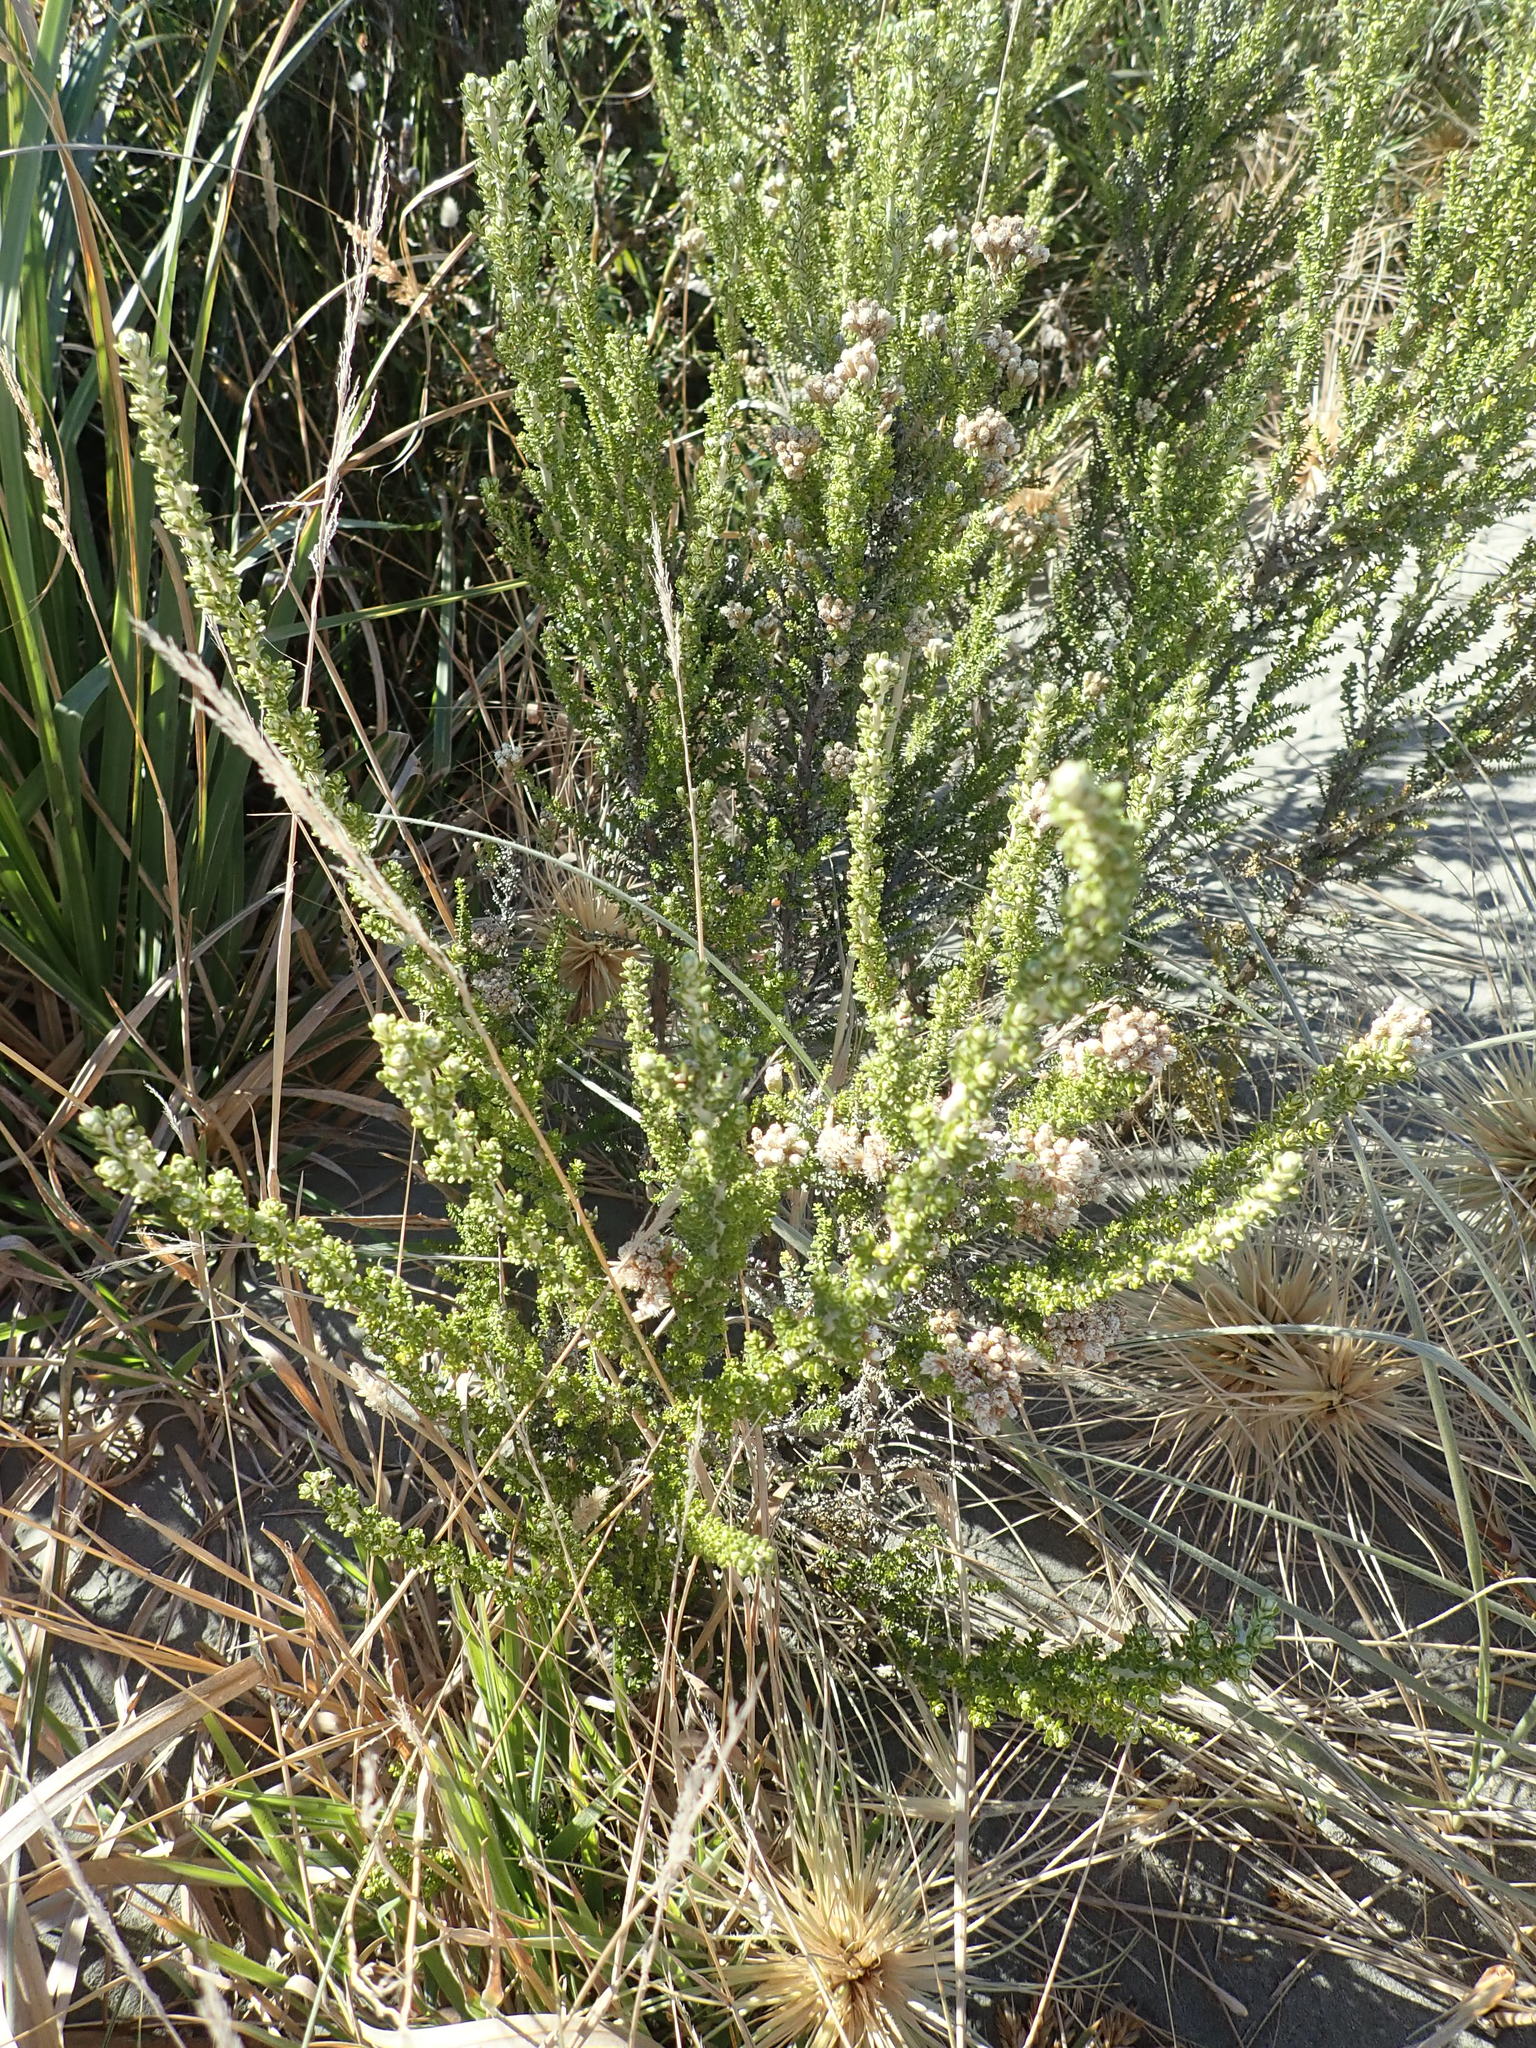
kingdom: Plantae
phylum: Tracheophyta
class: Magnoliopsida
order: Asterales
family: Asteraceae
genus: Ozothamnus
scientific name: Ozothamnus leptophyllus
